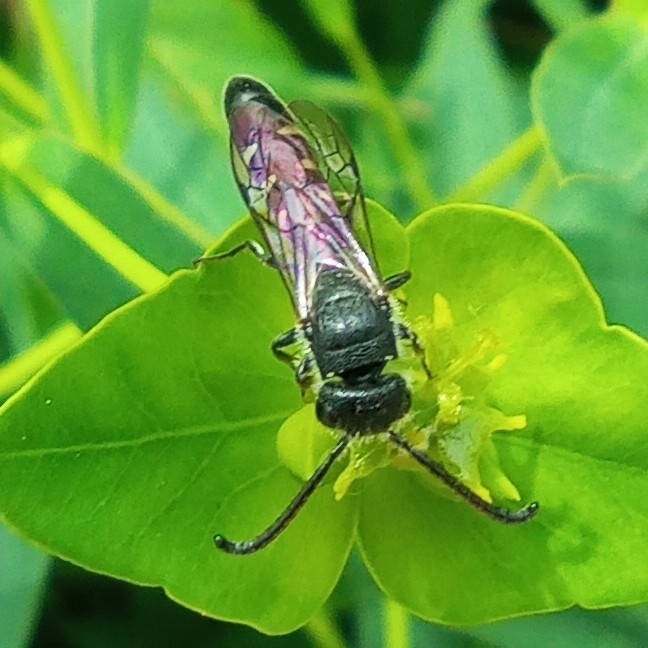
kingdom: Animalia
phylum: Arthropoda
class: Insecta
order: Hymenoptera
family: Sapygidae
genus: Sapyga
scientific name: Sapyga quinquepunctata
